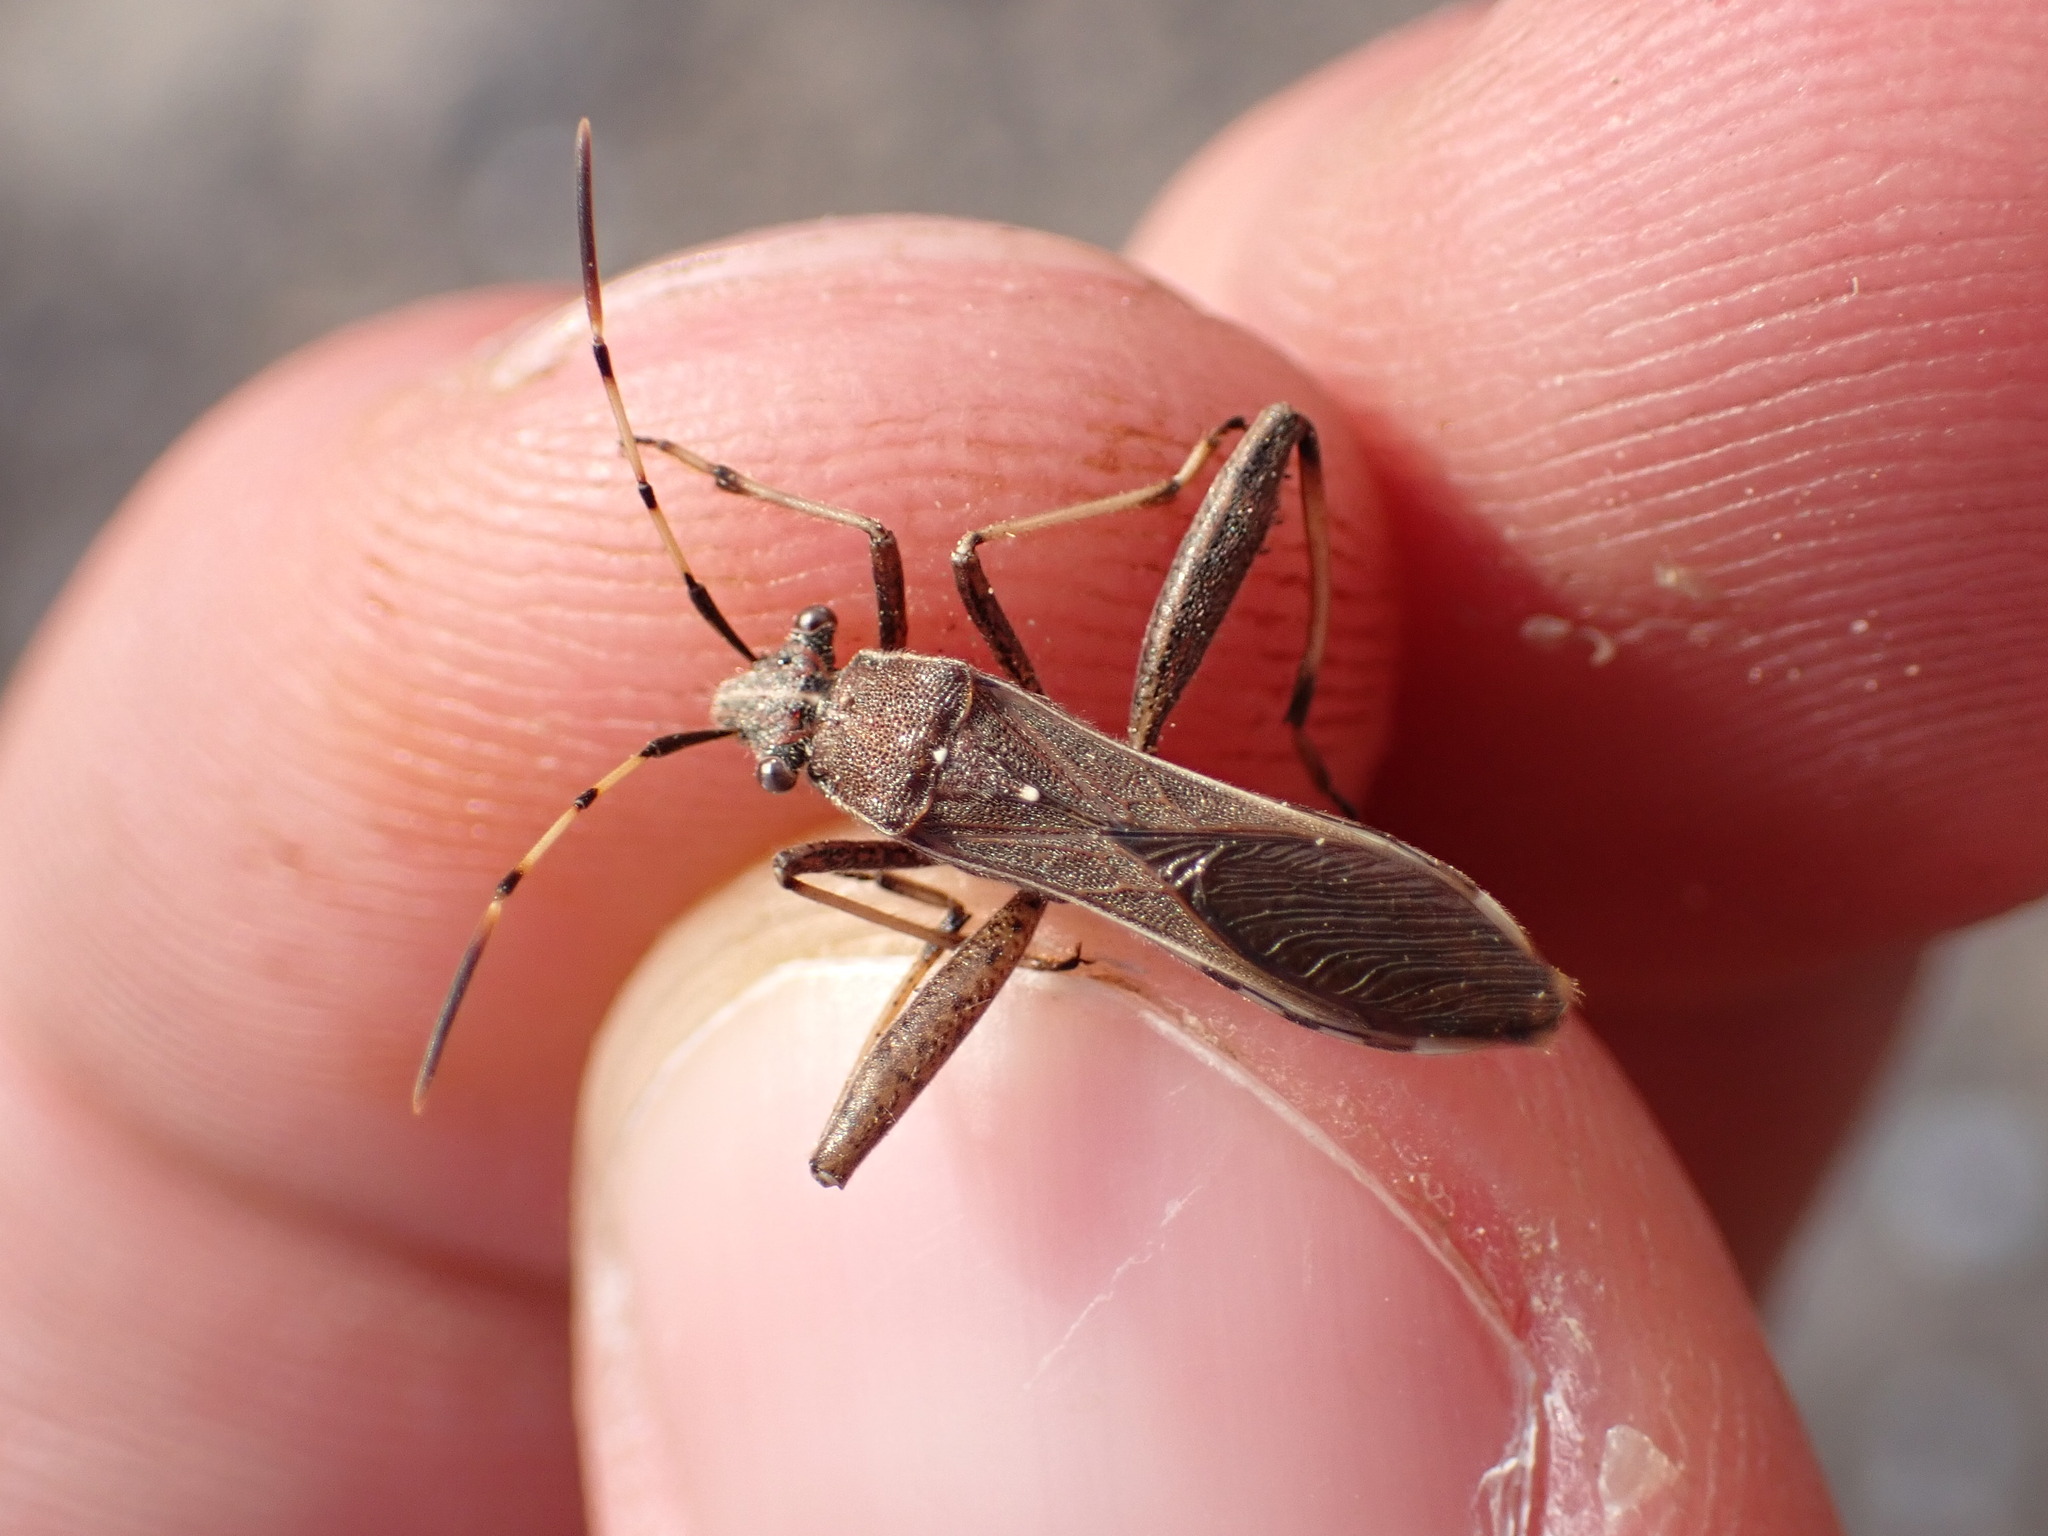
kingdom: Animalia
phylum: Arthropoda
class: Insecta
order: Hemiptera
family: Alydidae
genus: Camptopus
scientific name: Camptopus lateralis
